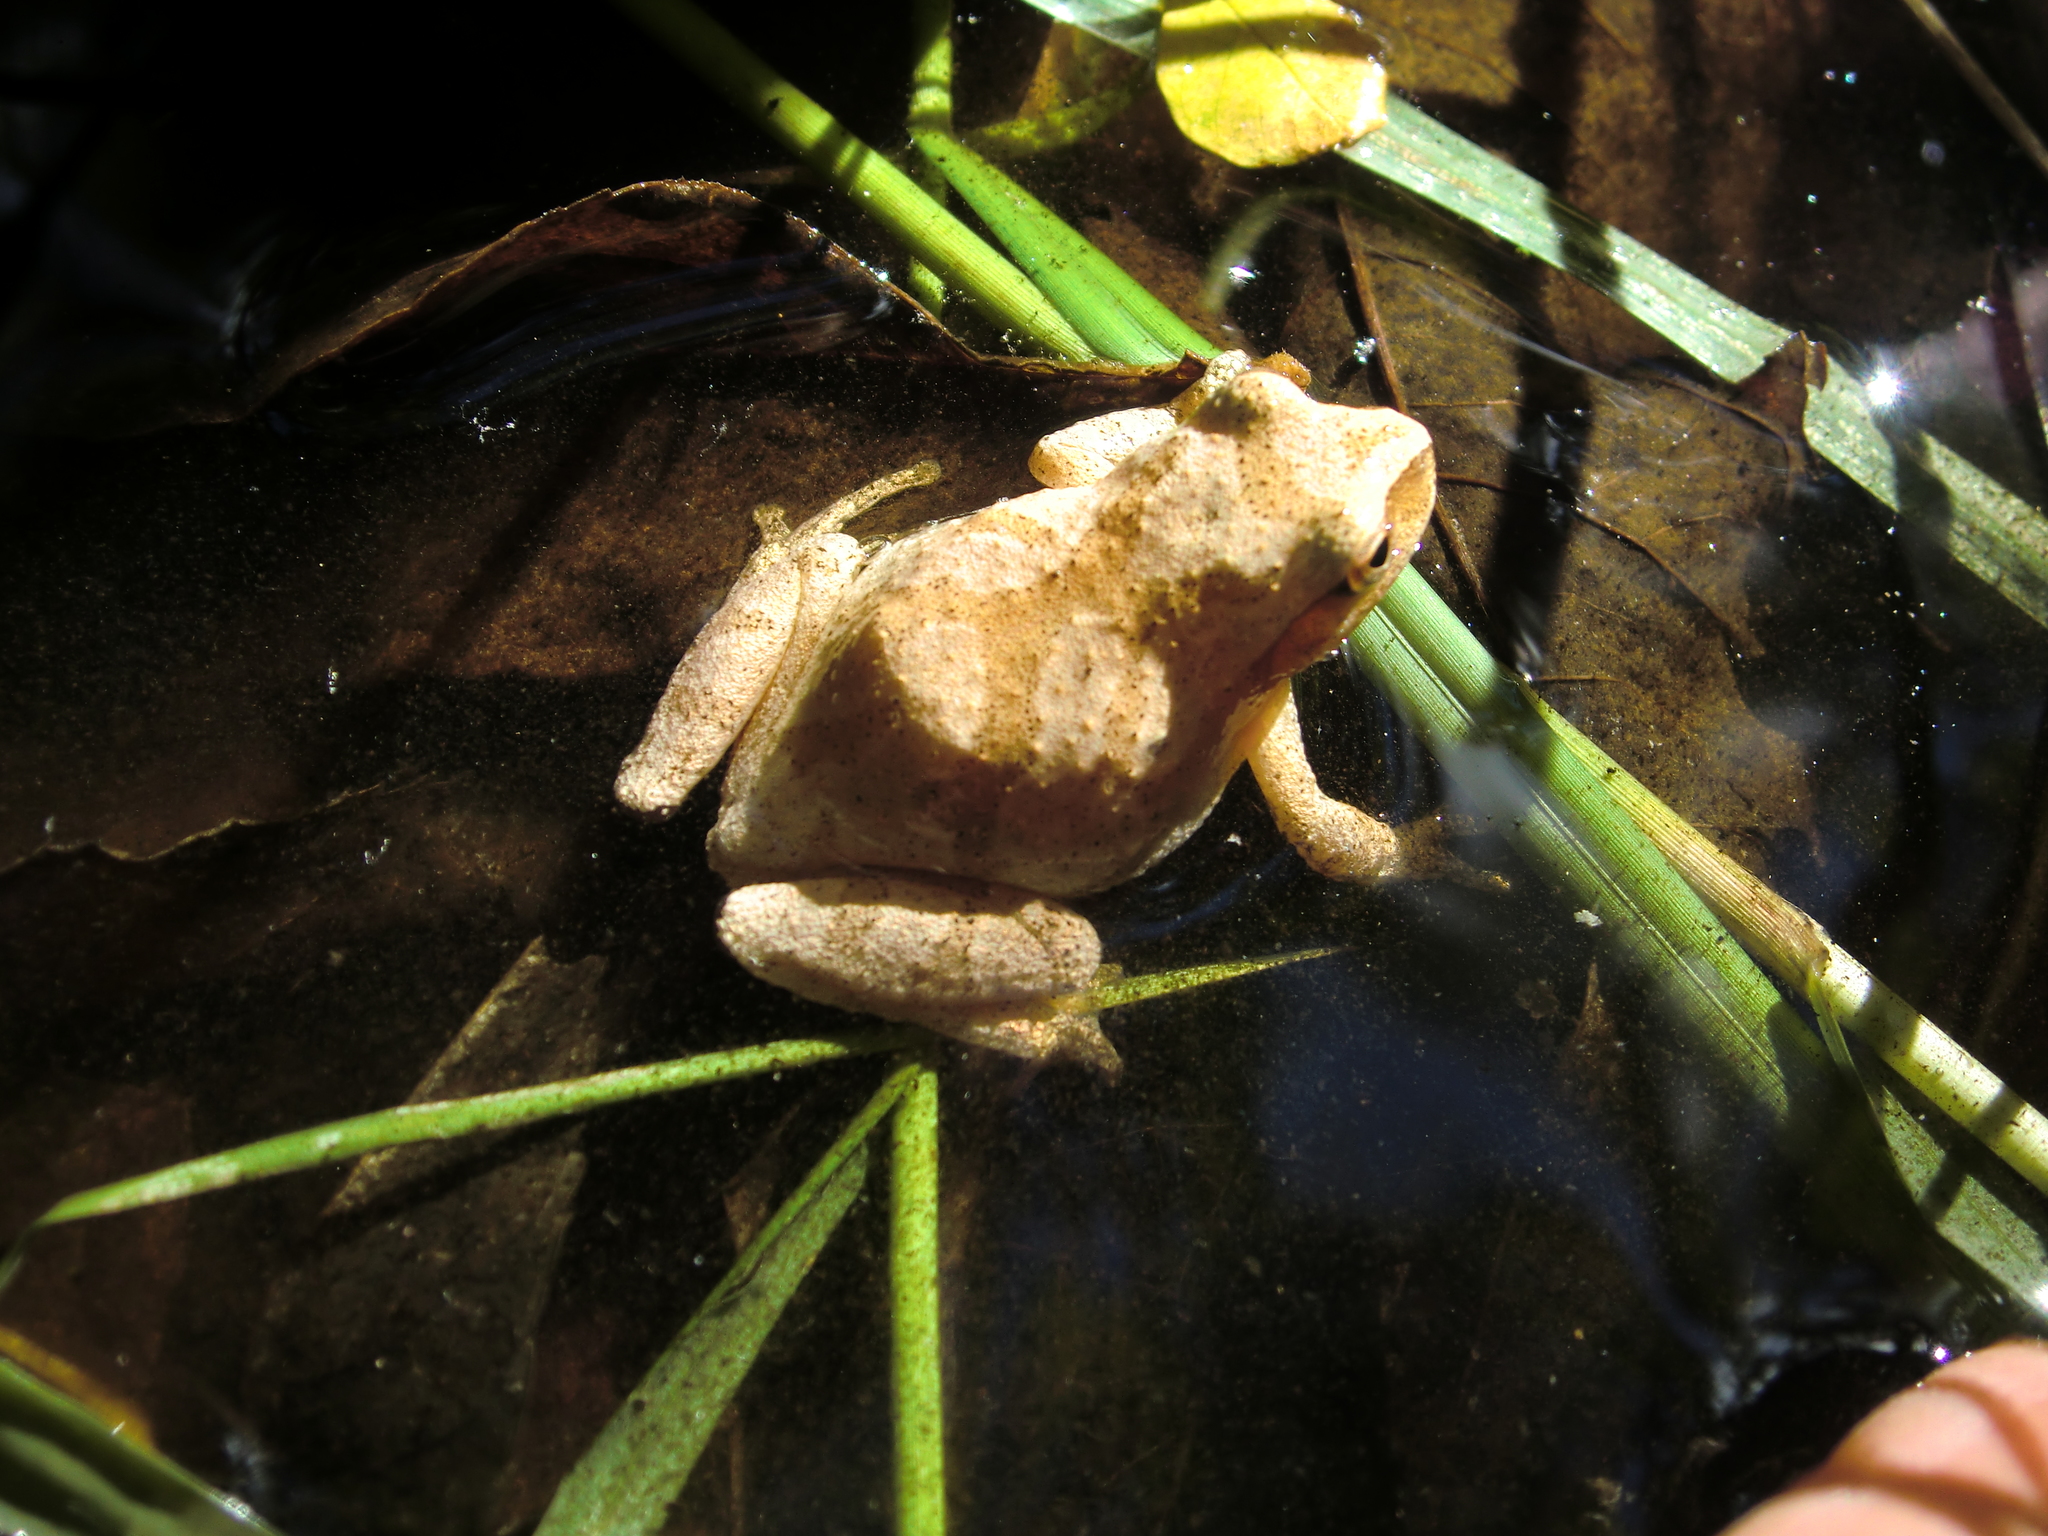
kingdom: Animalia
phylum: Chordata
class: Amphibia
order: Anura
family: Hylidae
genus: Pseudacris
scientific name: Pseudacris crucifer
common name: Spring peeper
